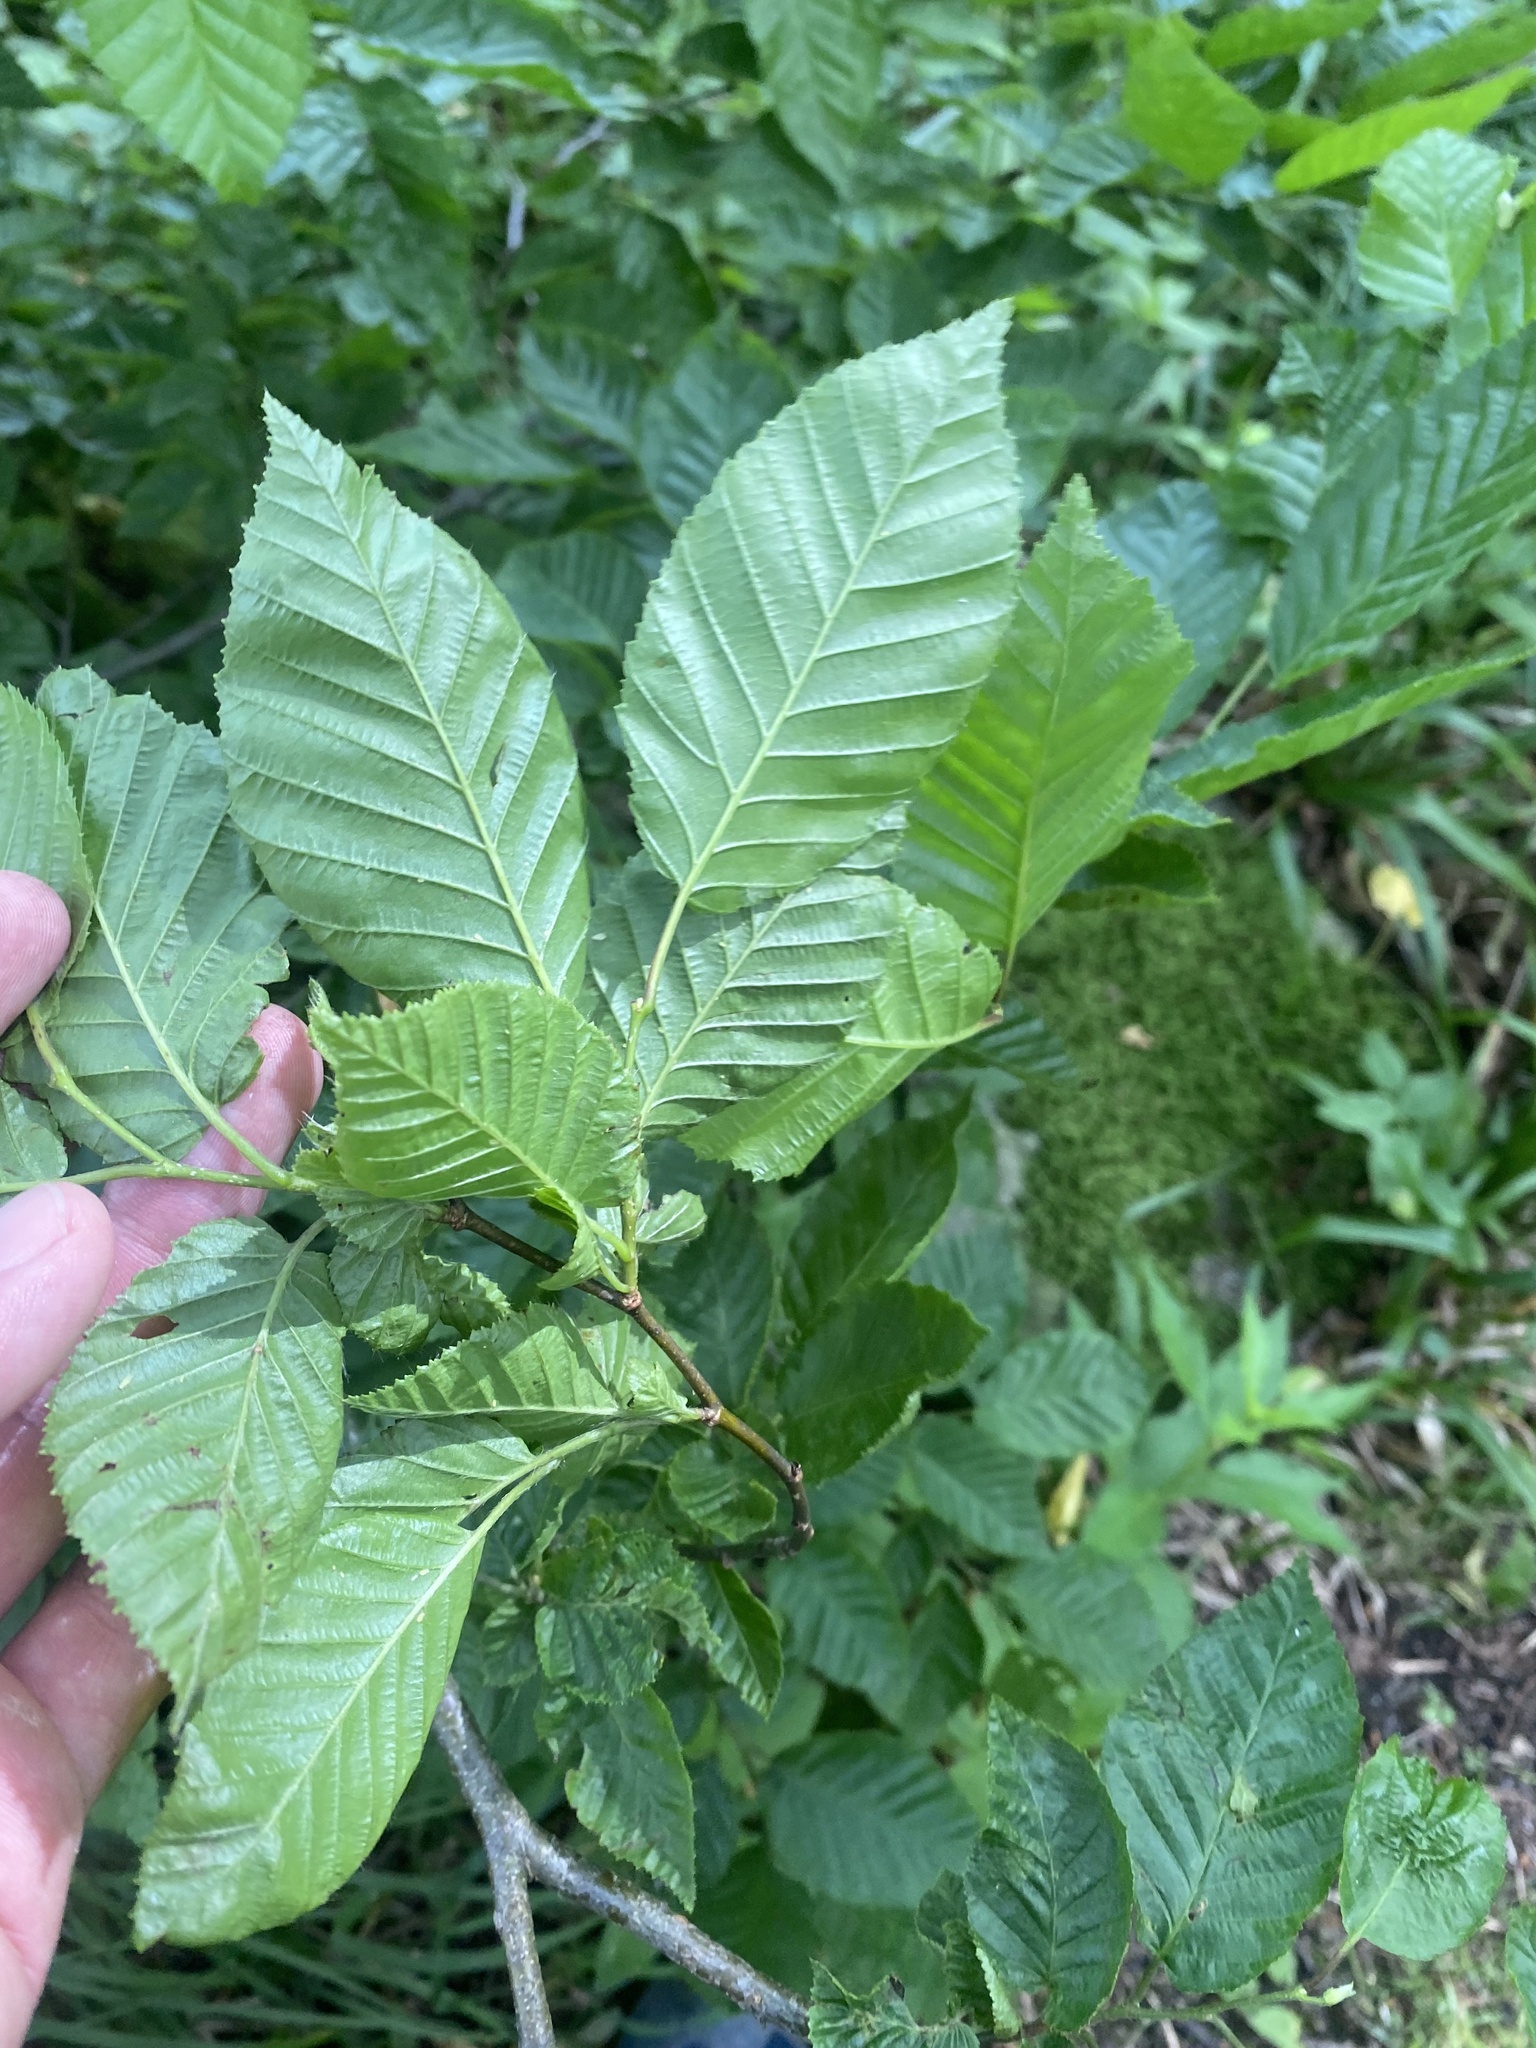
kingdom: Plantae
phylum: Tracheophyta
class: Magnoliopsida
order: Fagales
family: Betulaceae
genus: Carpinus
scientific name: Carpinus betulus
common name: Hornbeam
